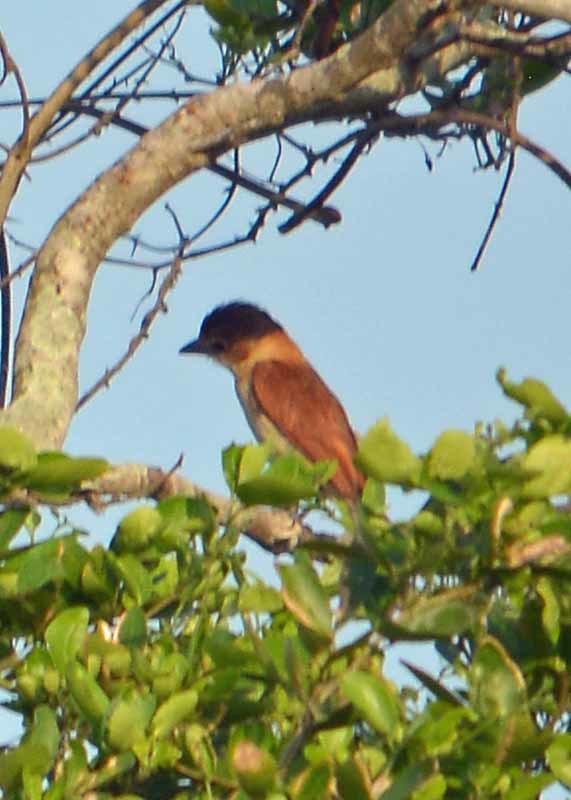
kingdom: Animalia
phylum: Chordata
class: Aves
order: Passeriformes
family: Cotingidae
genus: Pachyramphus
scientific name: Pachyramphus aglaiae
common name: Rose-throated becard
